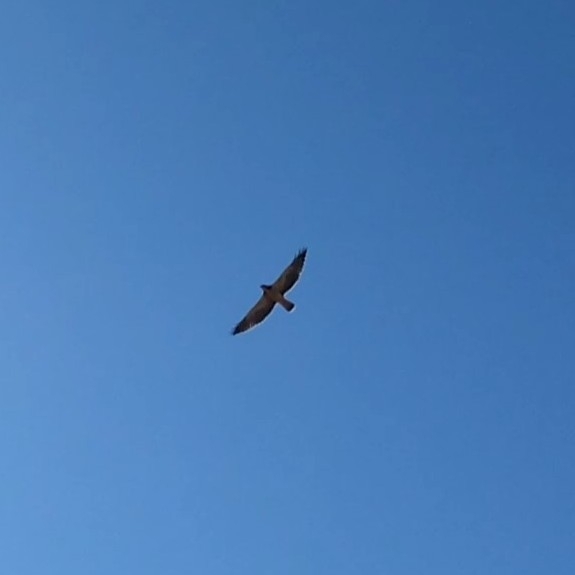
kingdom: Animalia
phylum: Chordata
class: Aves
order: Accipitriformes
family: Accipitridae
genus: Buteo
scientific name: Buteo swainsoni
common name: Swainson's hawk
